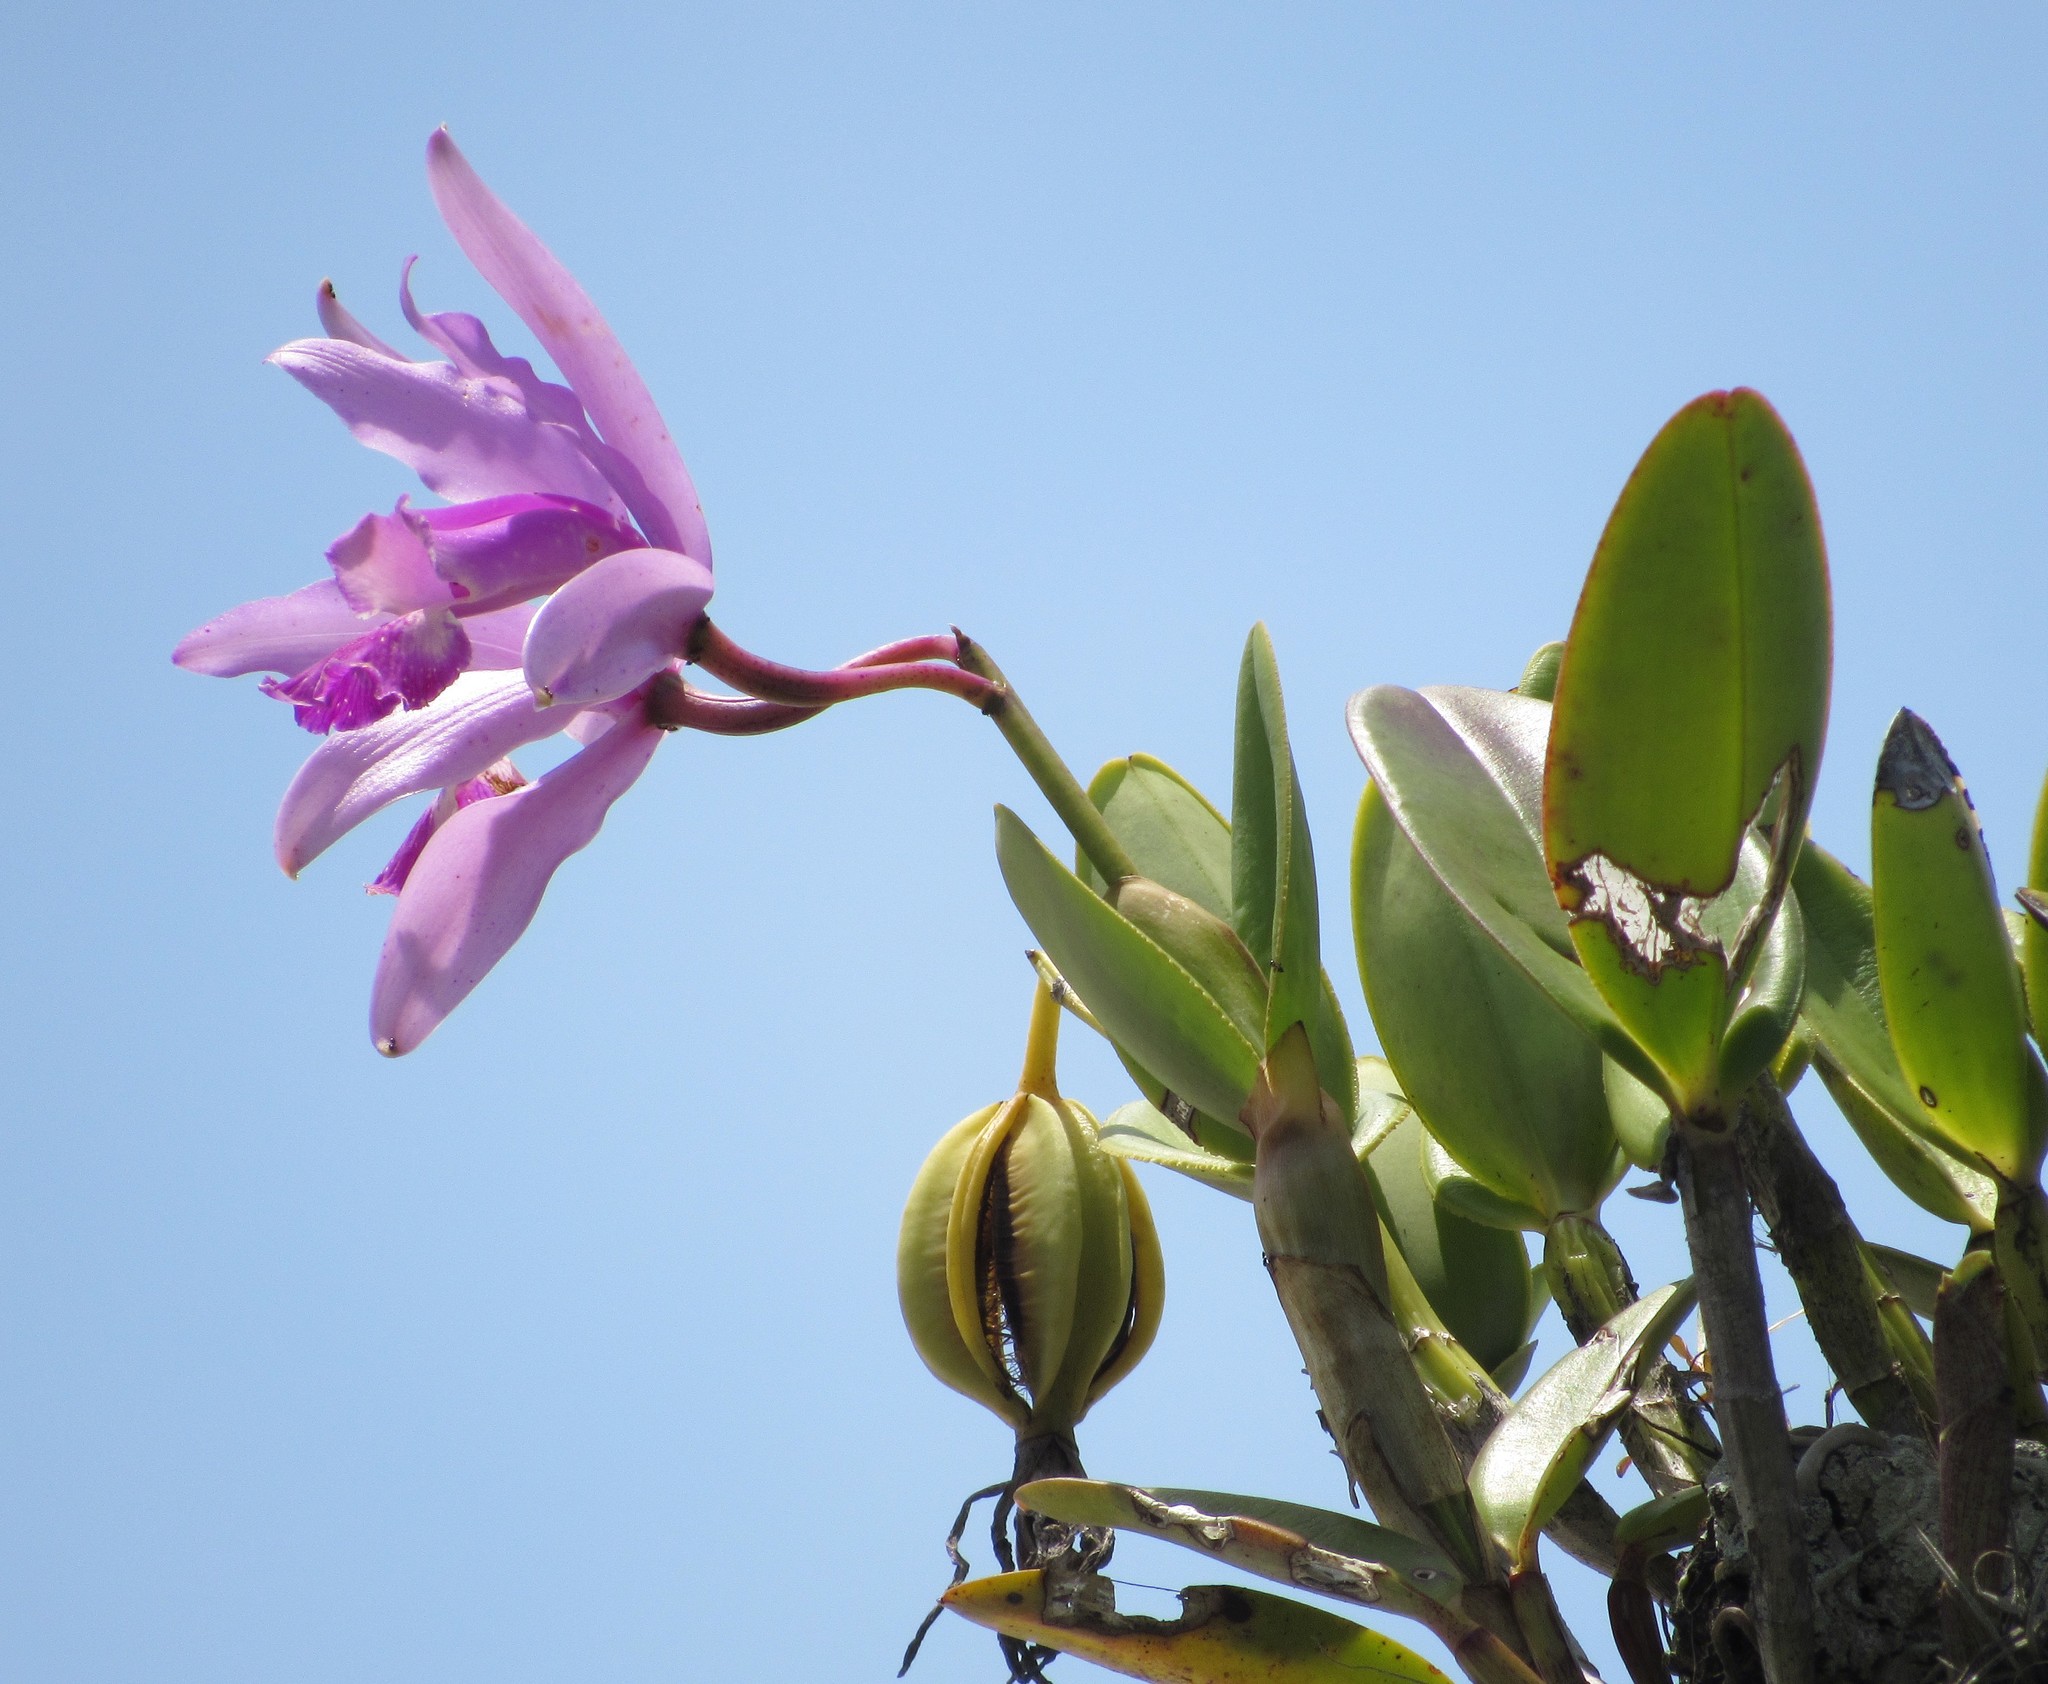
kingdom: Plantae
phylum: Tracheophyta
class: Liliopsida
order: Asparagales
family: Orchidaceae
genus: Cattleya
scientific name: Cattleya intermedia
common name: Intermediate cattleya
